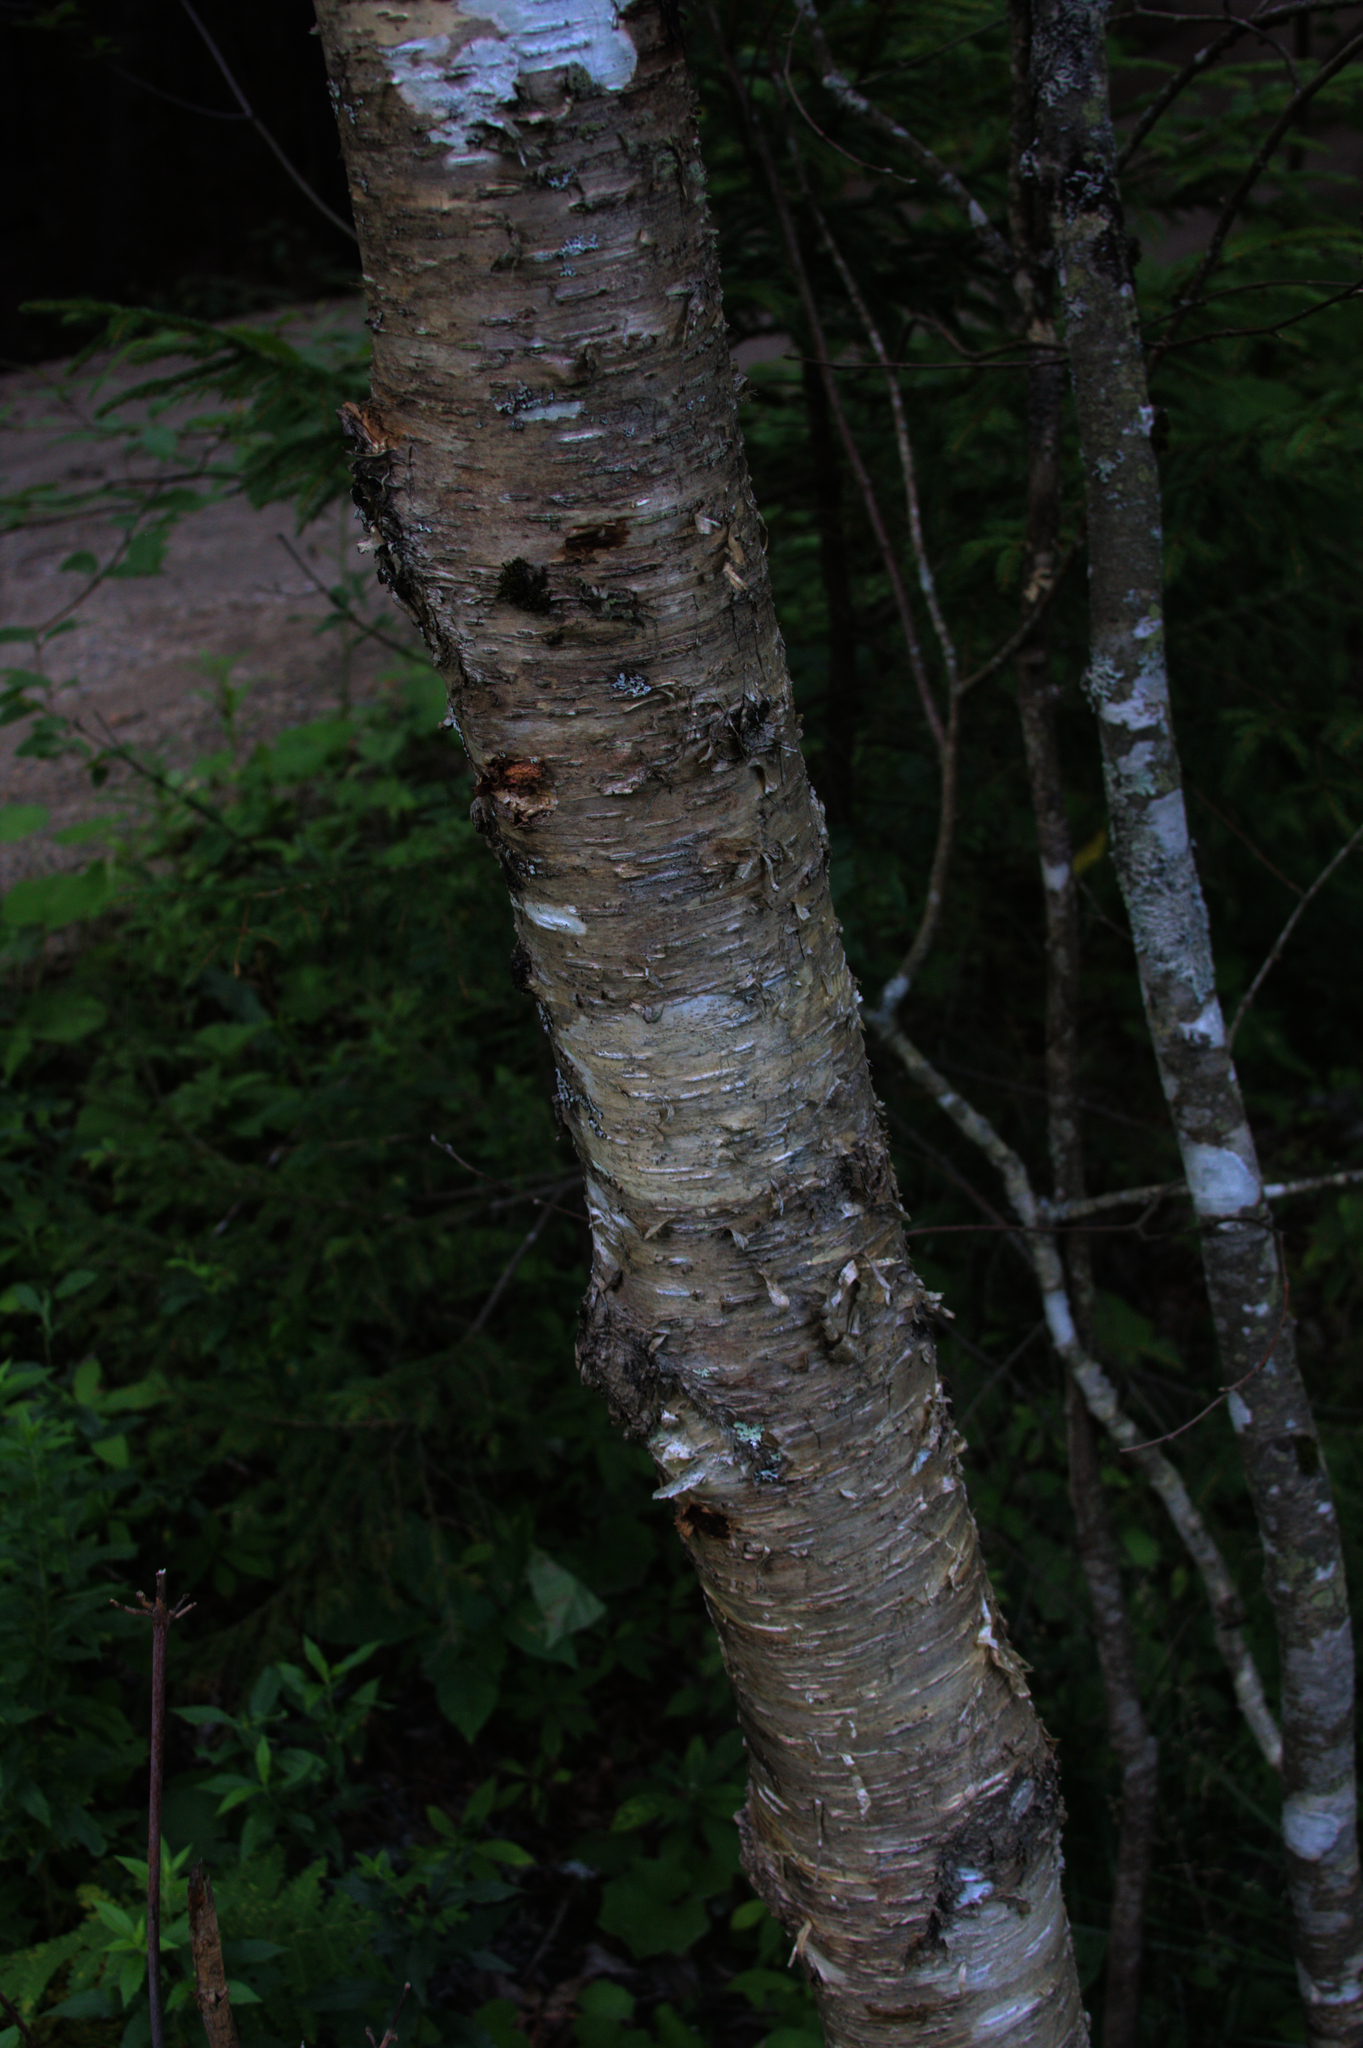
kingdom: Plantae
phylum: Tracheophyta
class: Magnoliopsida
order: Fagales
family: Betulaceae
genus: Betula
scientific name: Betula alleghaniensis
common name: Yellow birch
